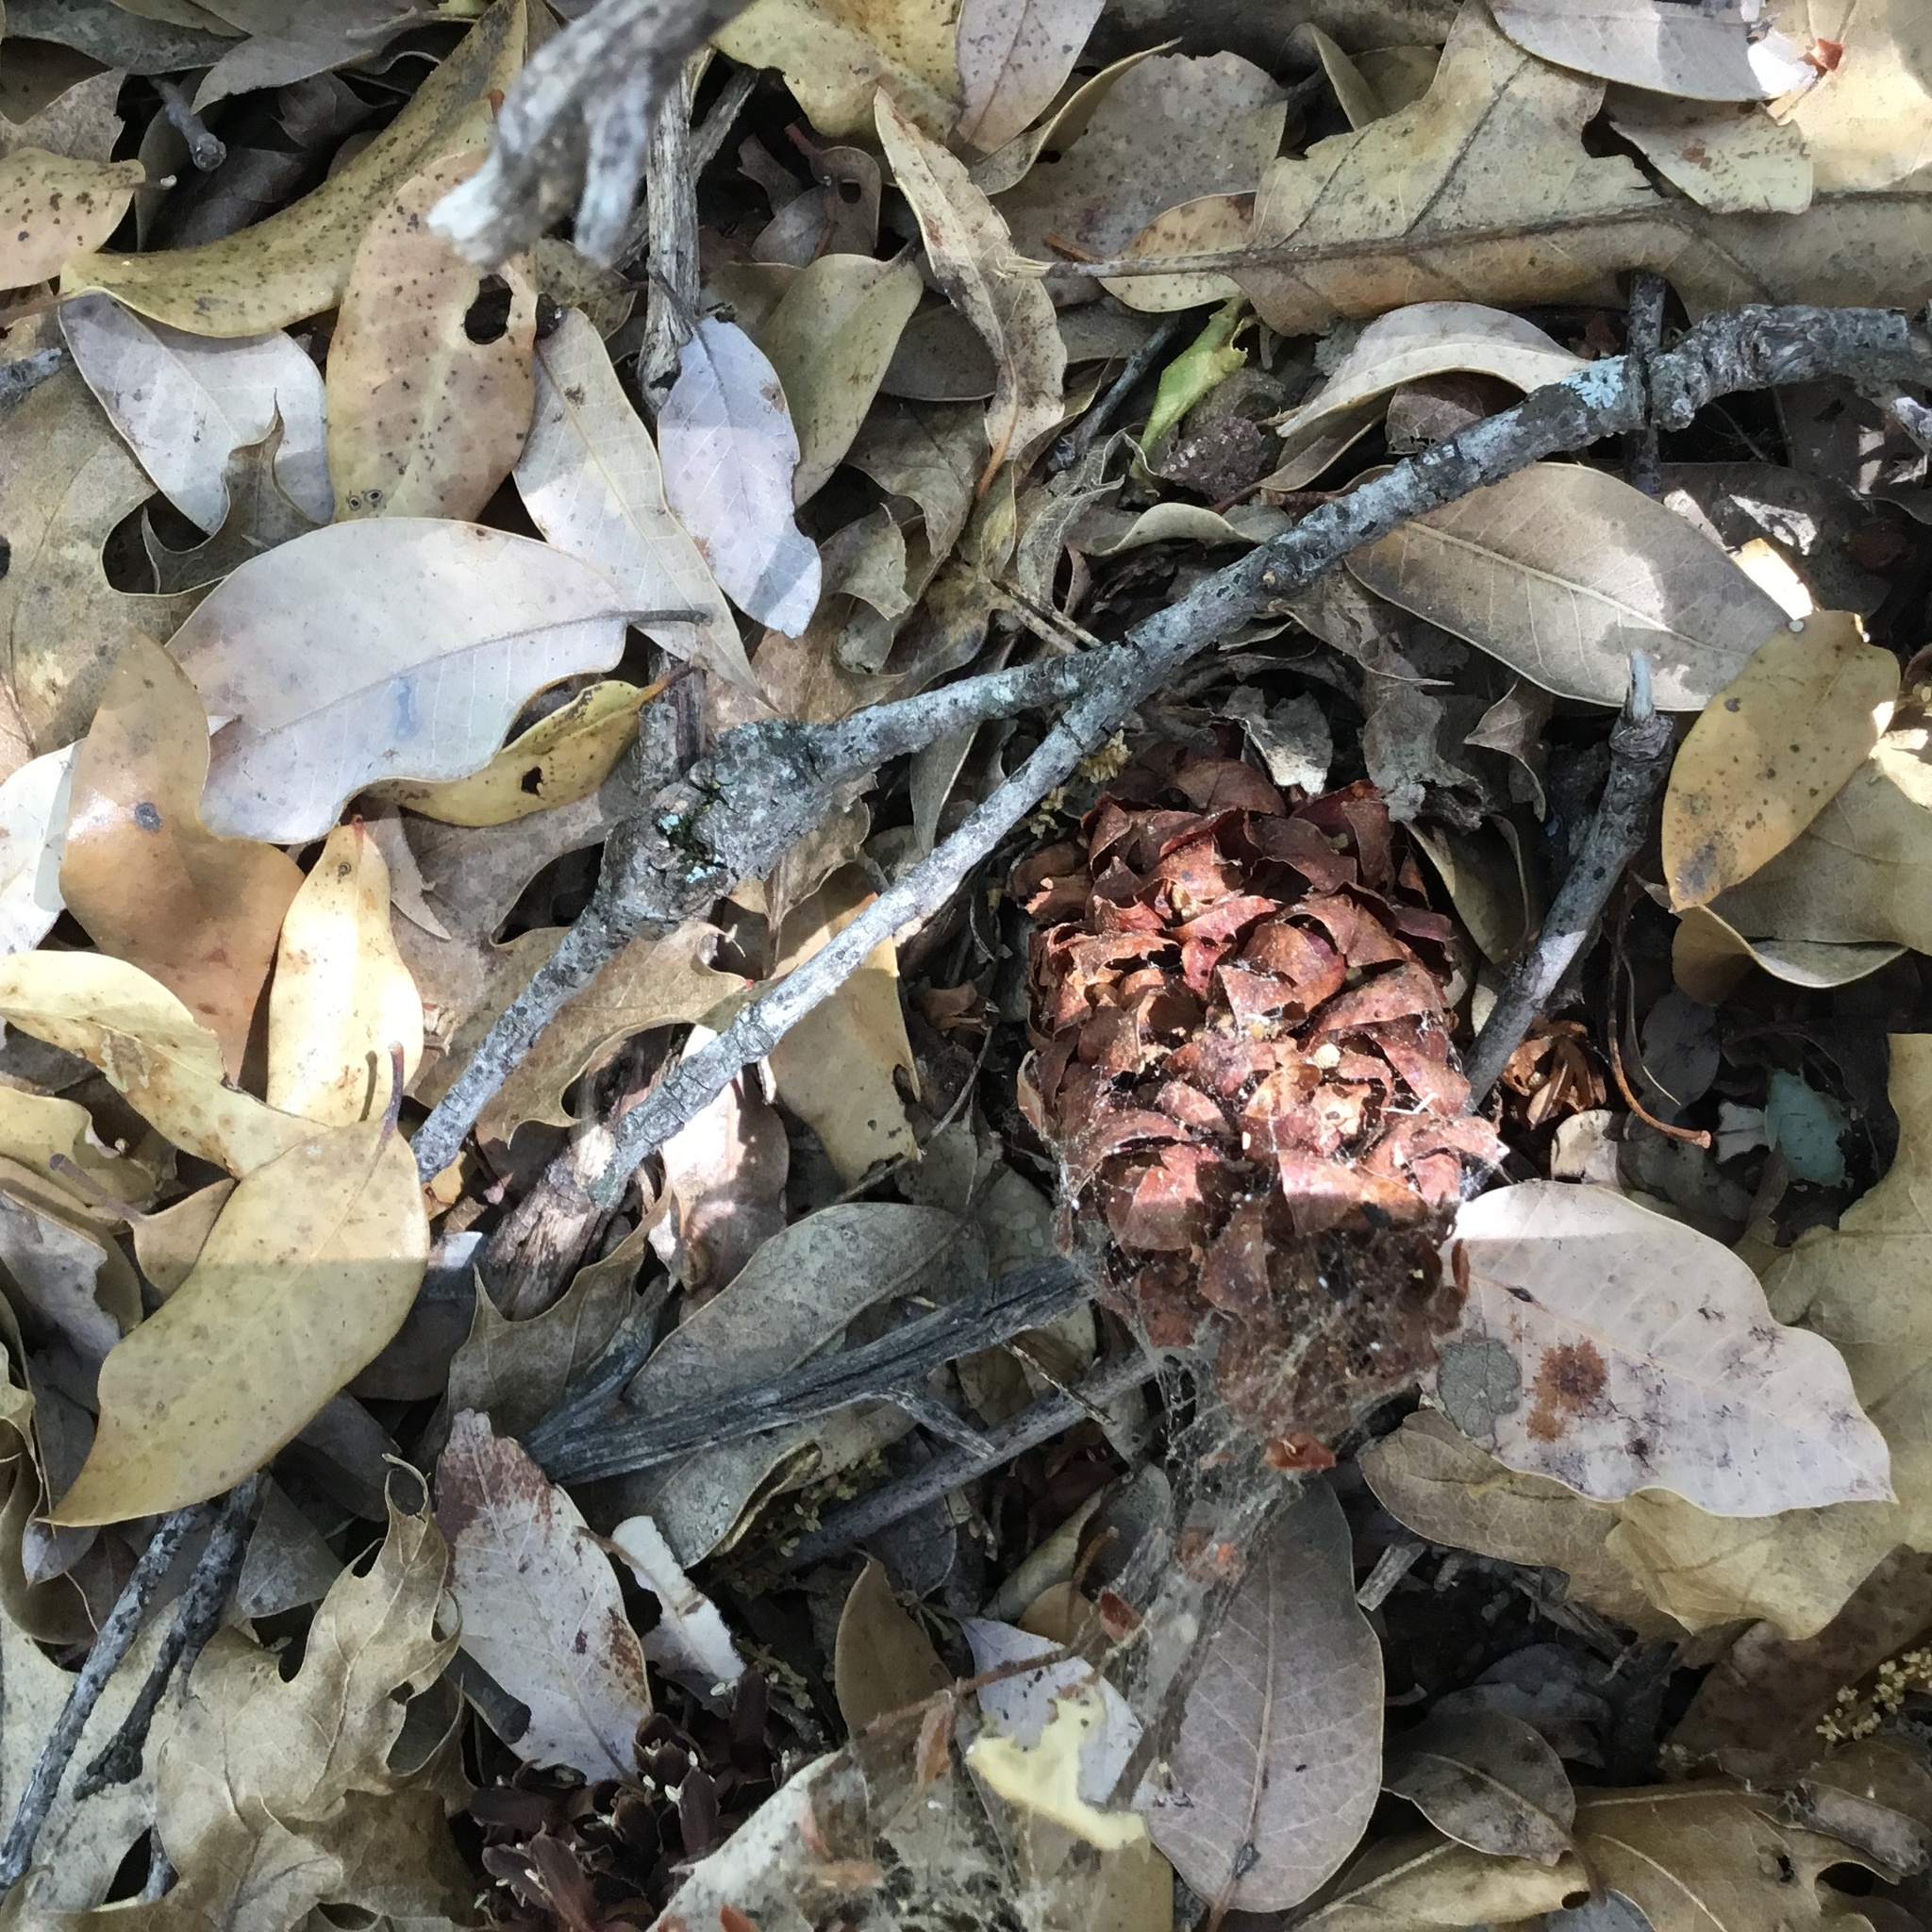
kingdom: Plantae
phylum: Tracheophyta
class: Magnoliopsida
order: Lamiales
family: Orobanchaceae
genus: Kopsiopsis
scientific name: Kopsiopsis strobilacea
